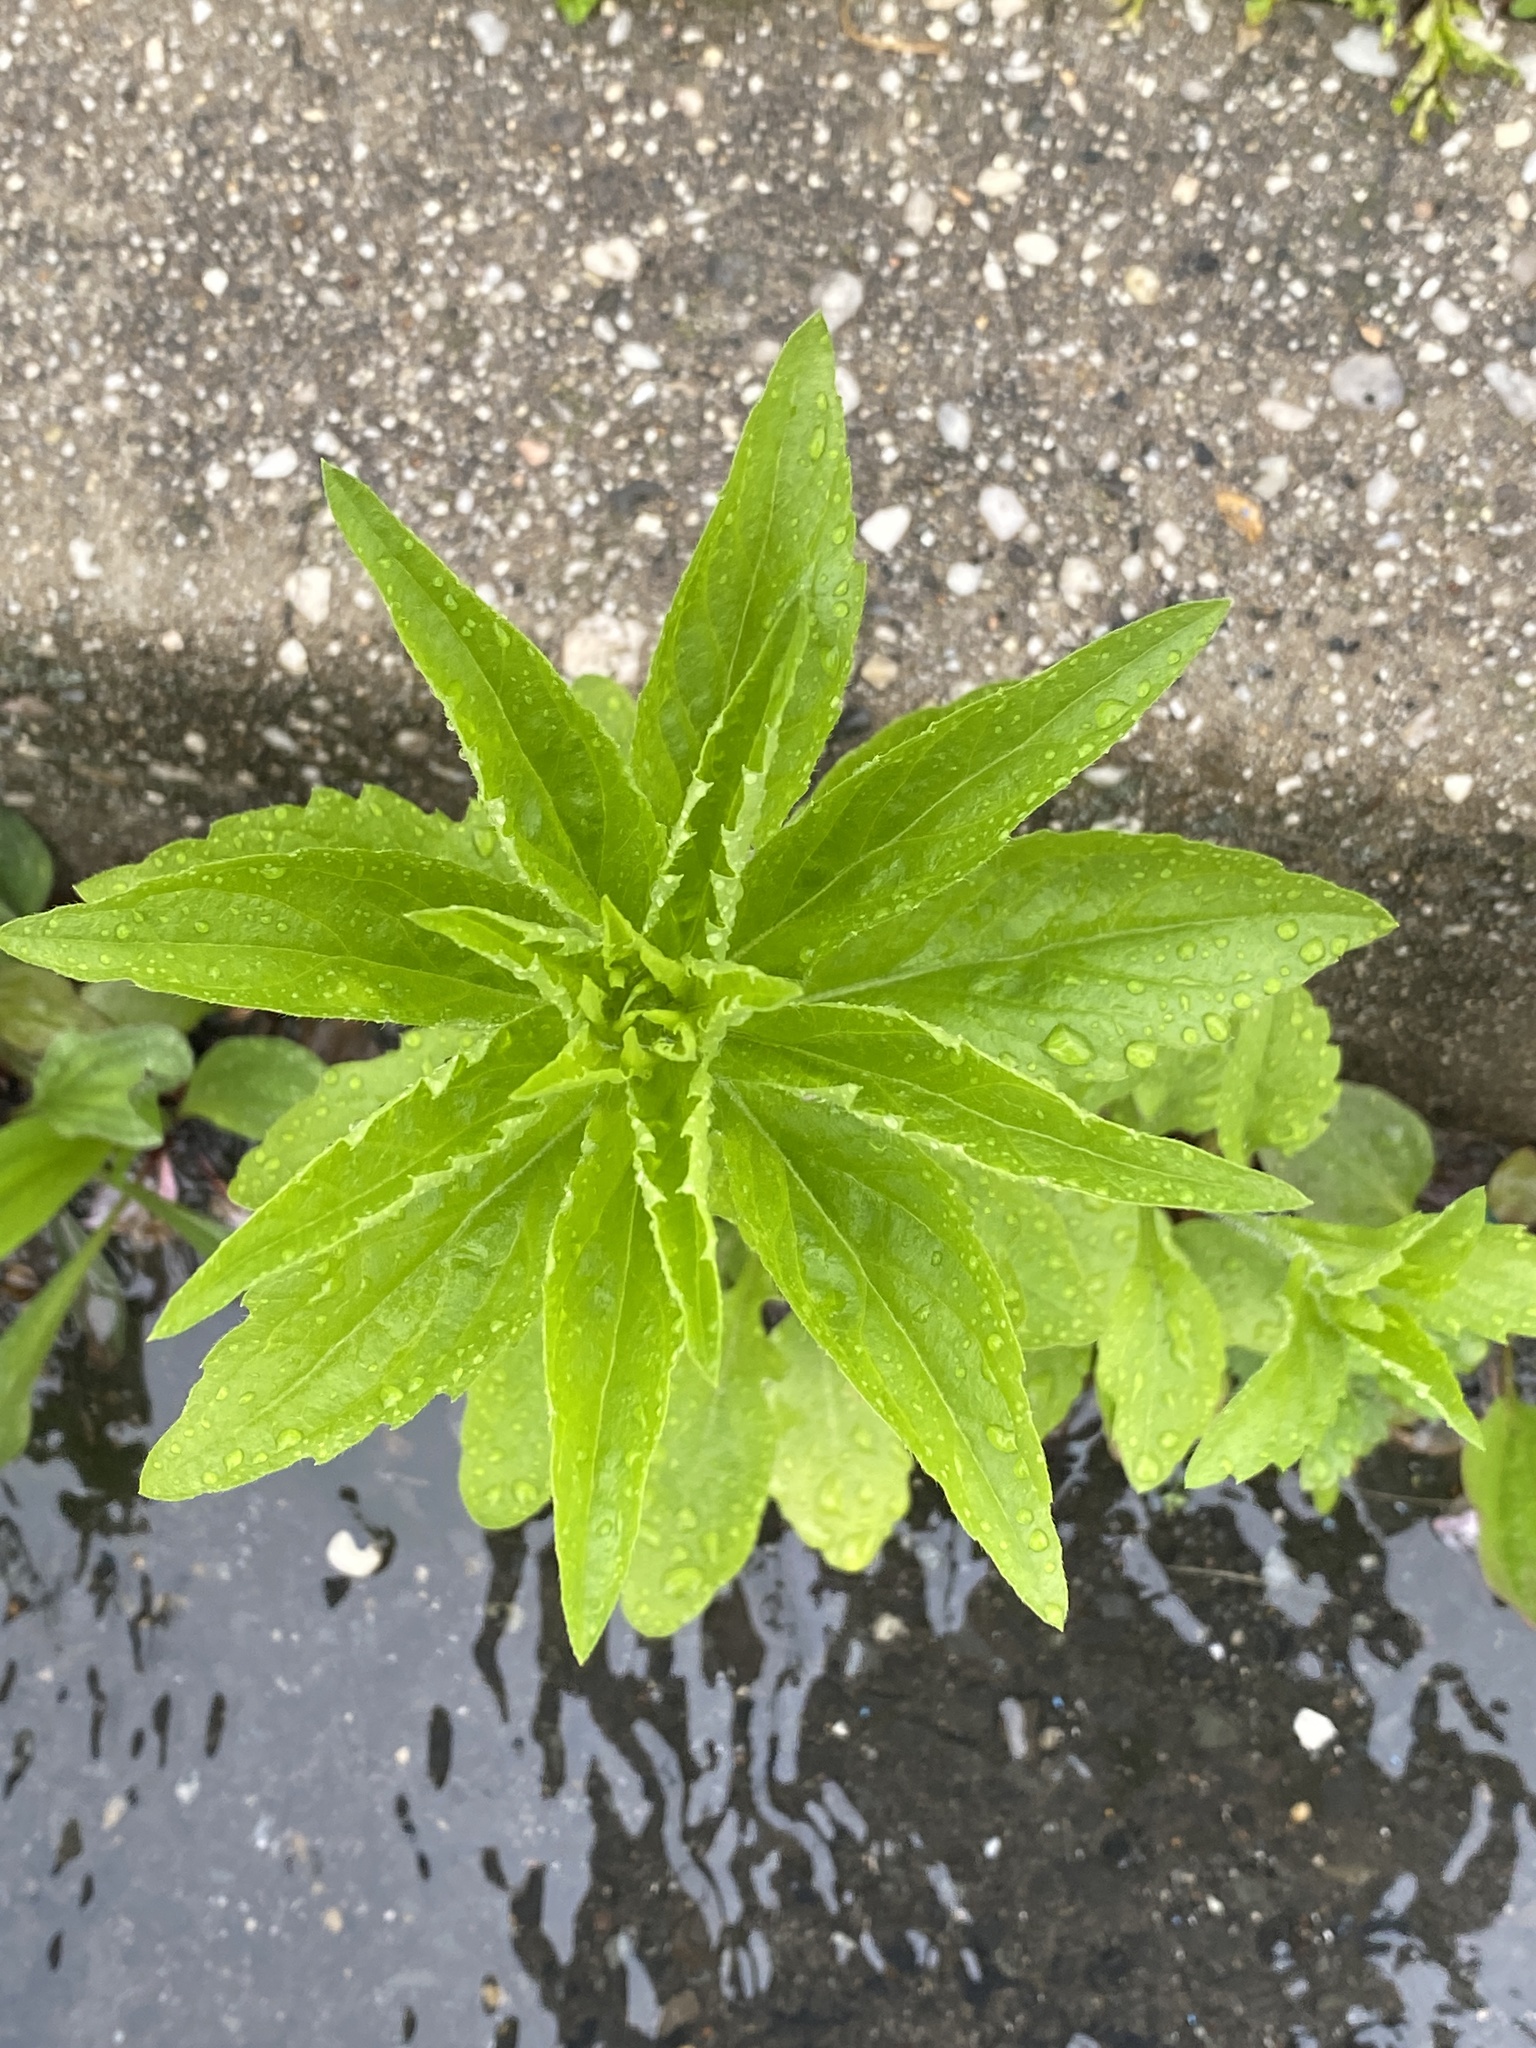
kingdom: Plantae
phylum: Tracheophyta
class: Magnoliopsida
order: Asterales
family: Asteraceae
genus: Erigeron
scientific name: Erigeron annuus
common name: Tall fleabane
